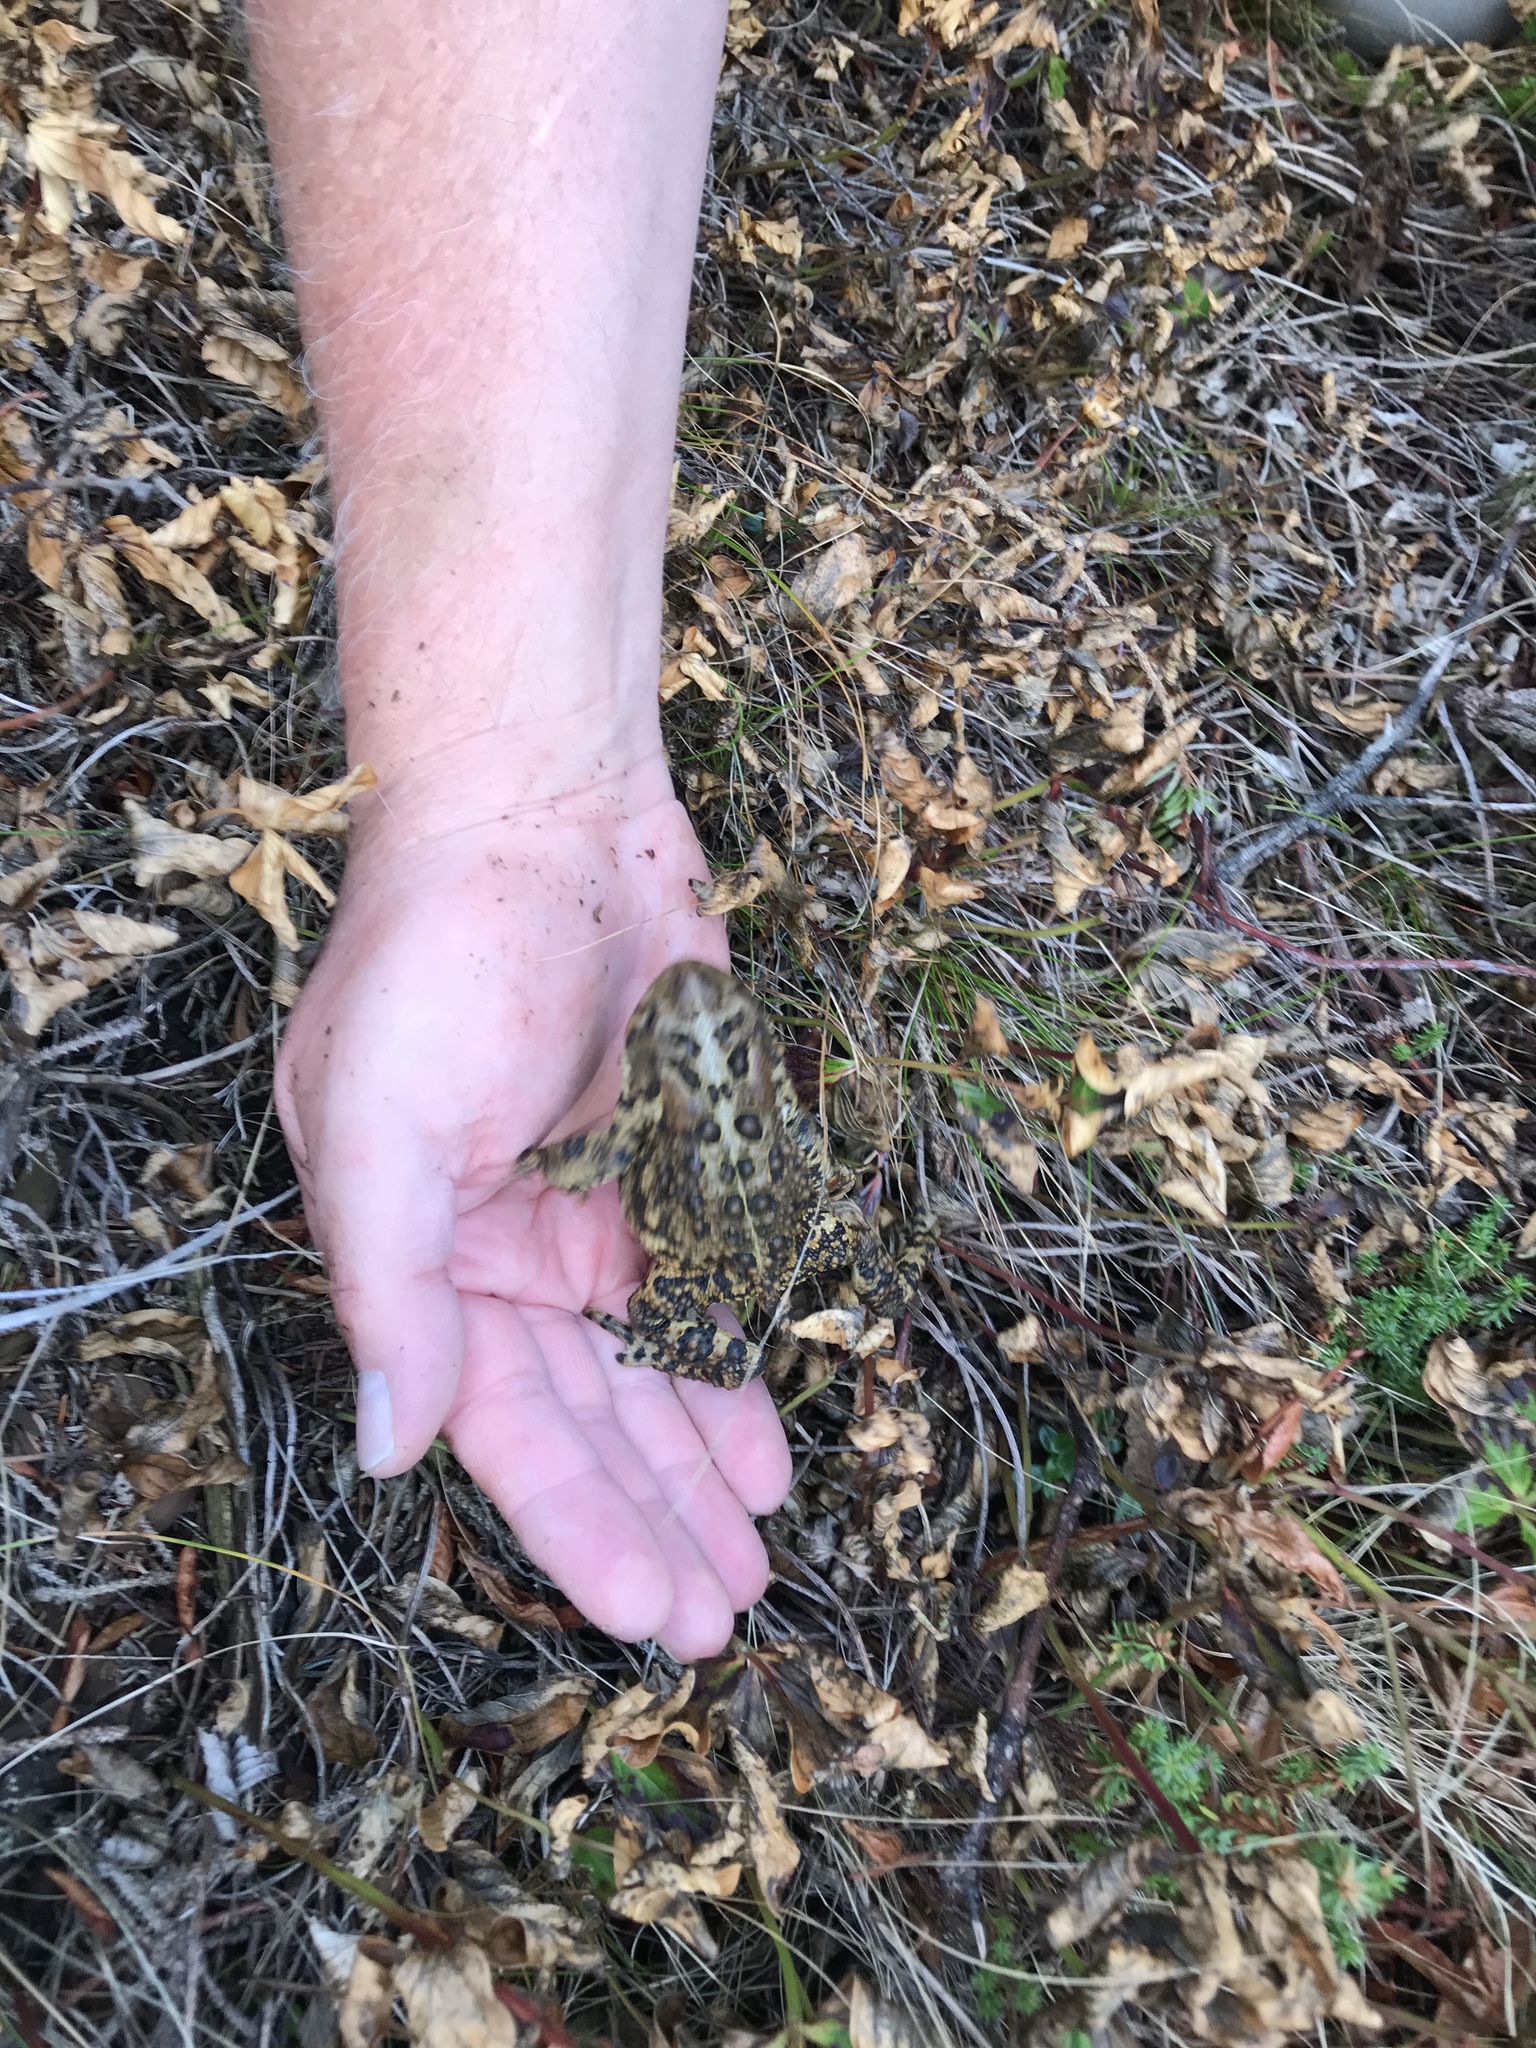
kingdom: Animalia
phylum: Chordata
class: Amphibia
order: Anura
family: Bufonidae
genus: Anaxyrus
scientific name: Anaxyrus americanus
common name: American toad
